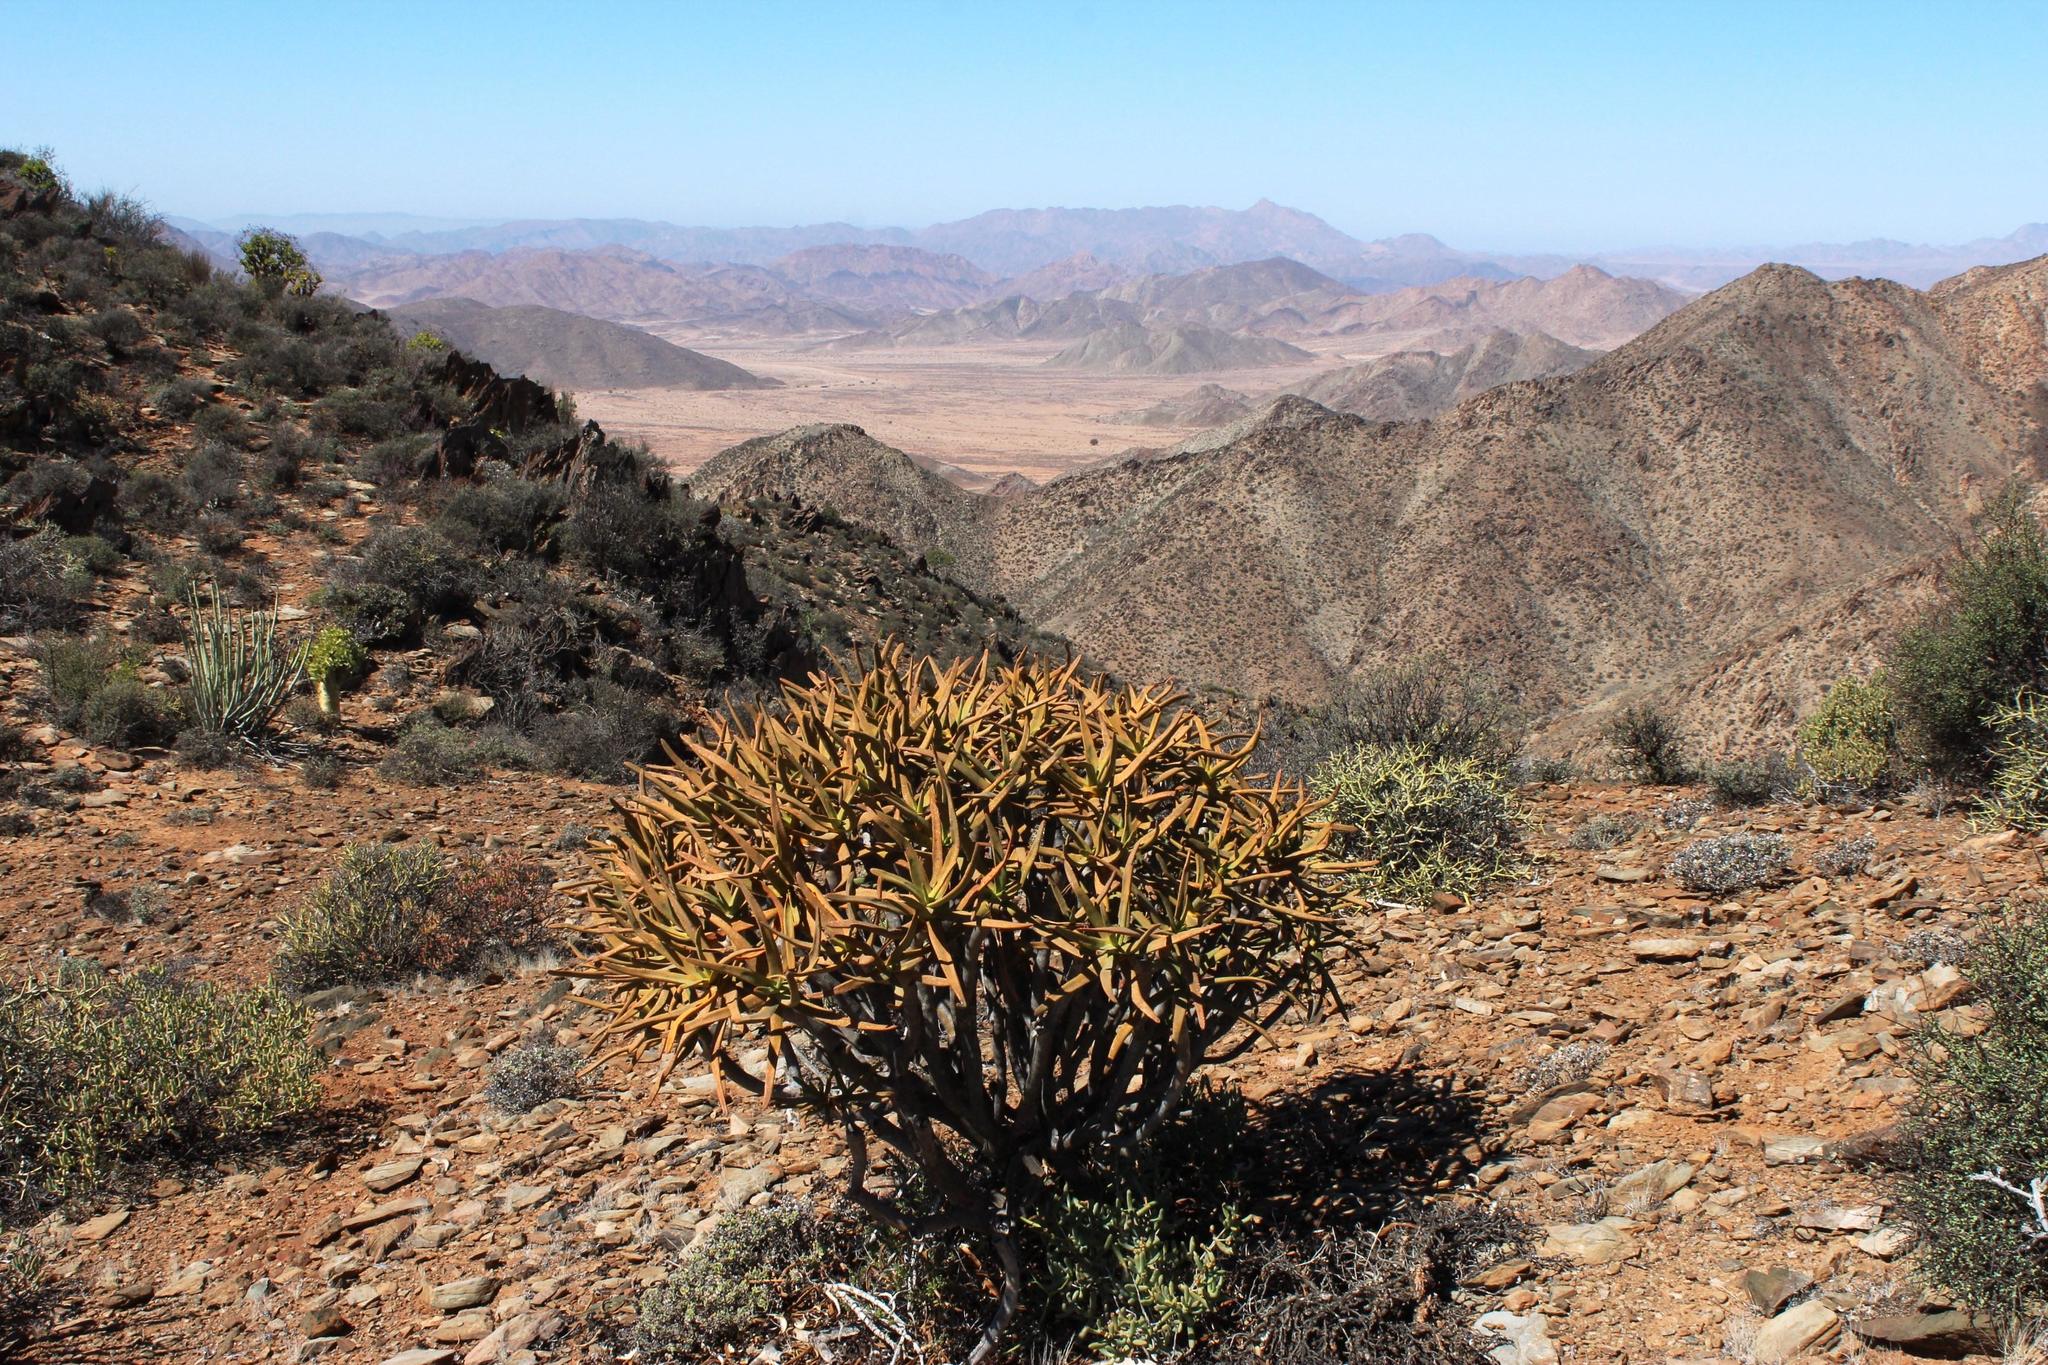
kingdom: Plantae
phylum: Tracheophyta
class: Liliopsida
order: Asparagales
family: Asphodelaceae
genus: Aloidendron
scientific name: Aloidendron ramosissimum
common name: Bush quiver tree
